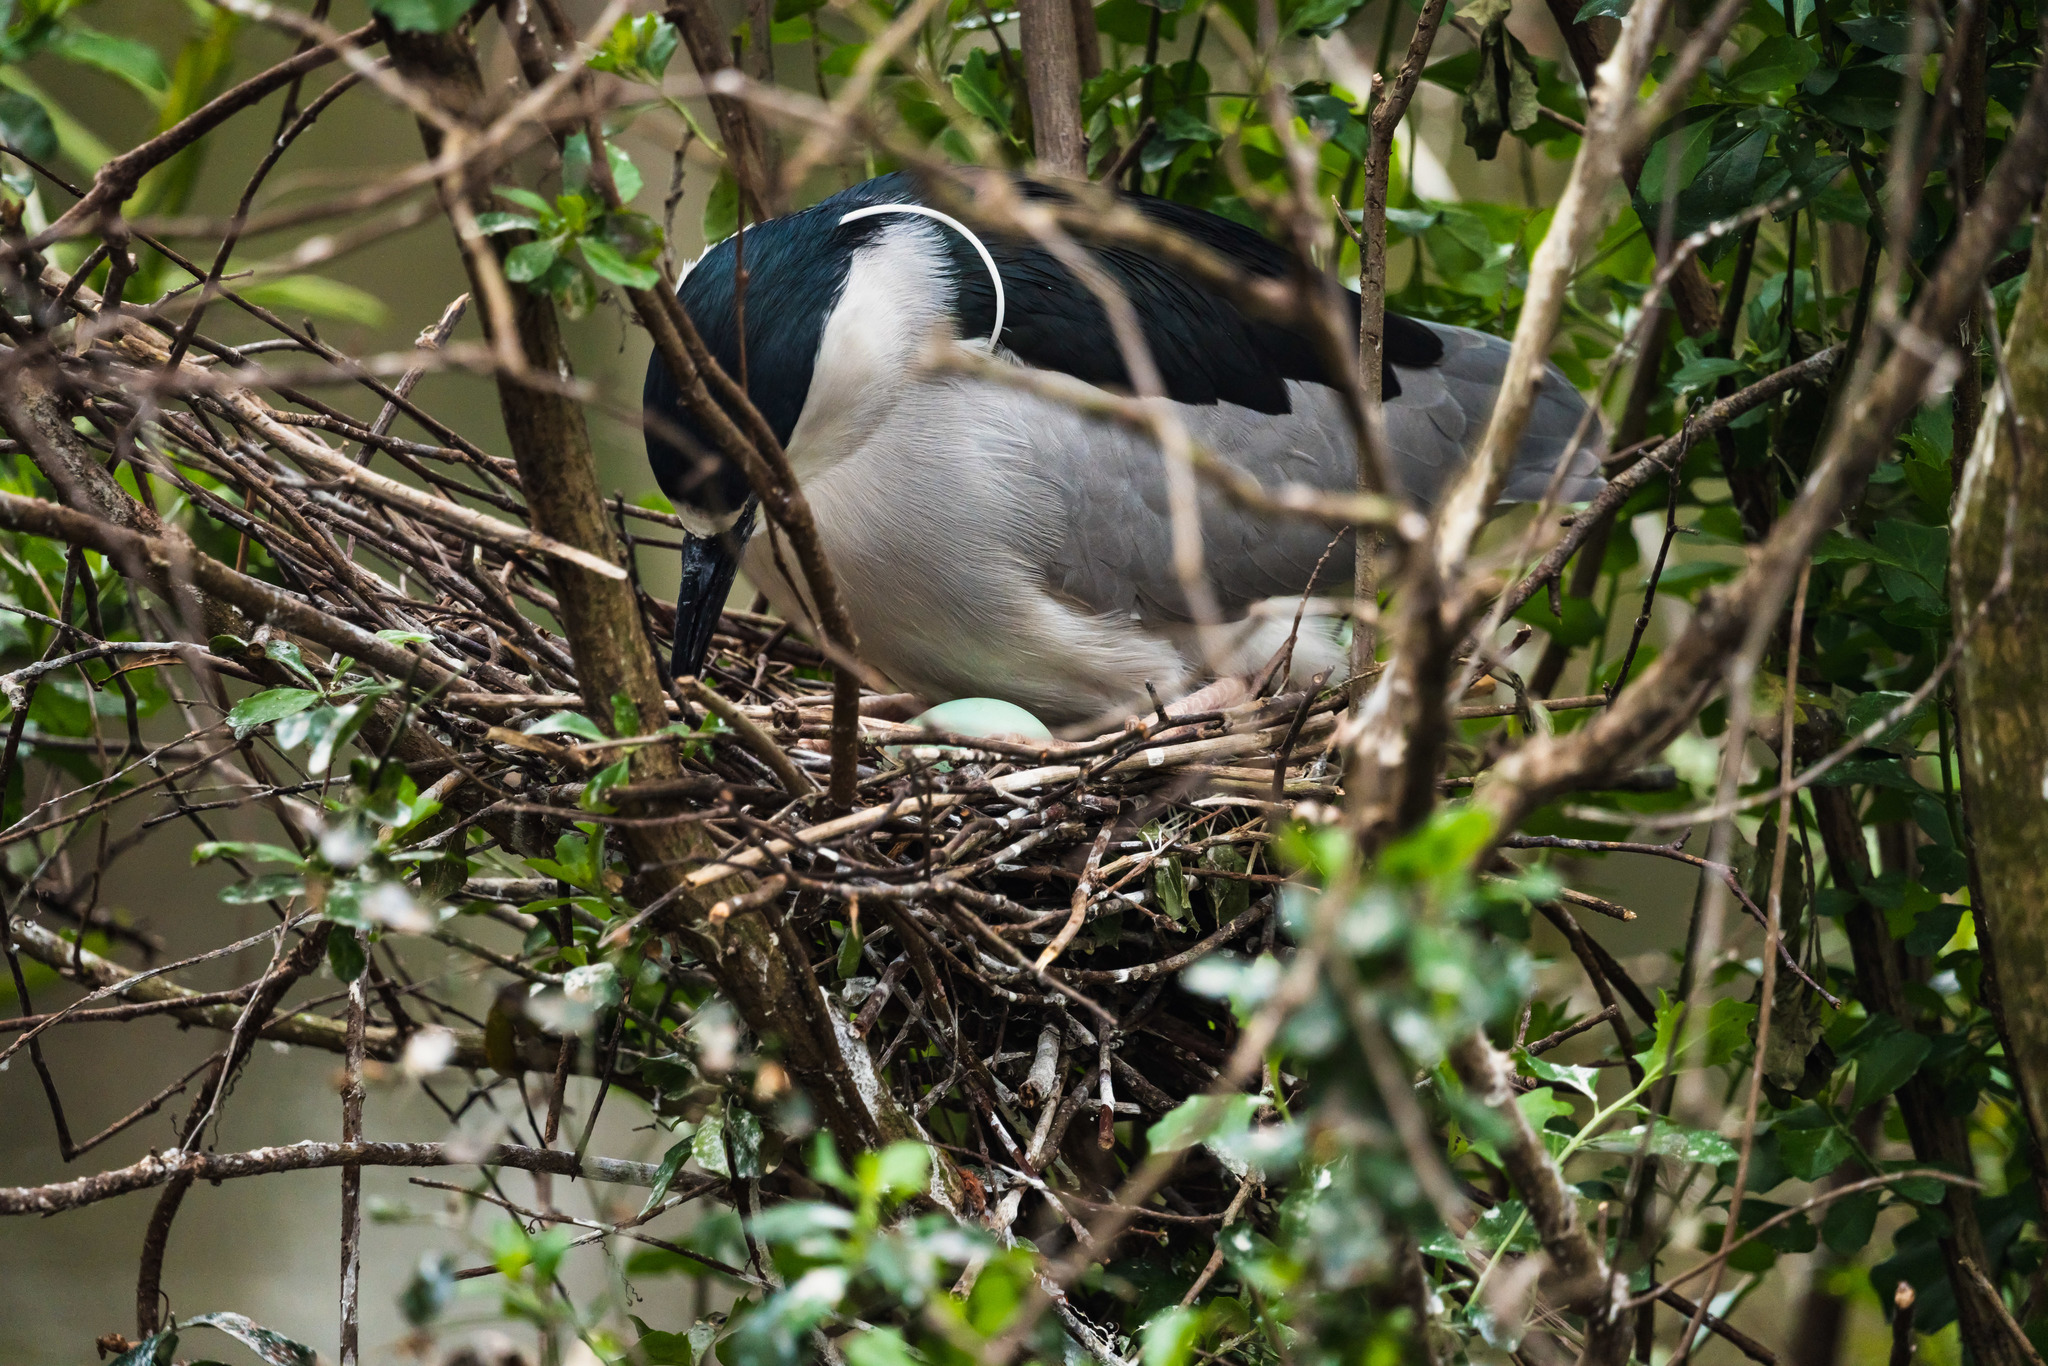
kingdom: Animalia
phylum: Chordata
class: Aves
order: Pelecaniformes
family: Ardeidae
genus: Nycticorax
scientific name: Nycticorax nycticorax
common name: Black-crowned night heron
